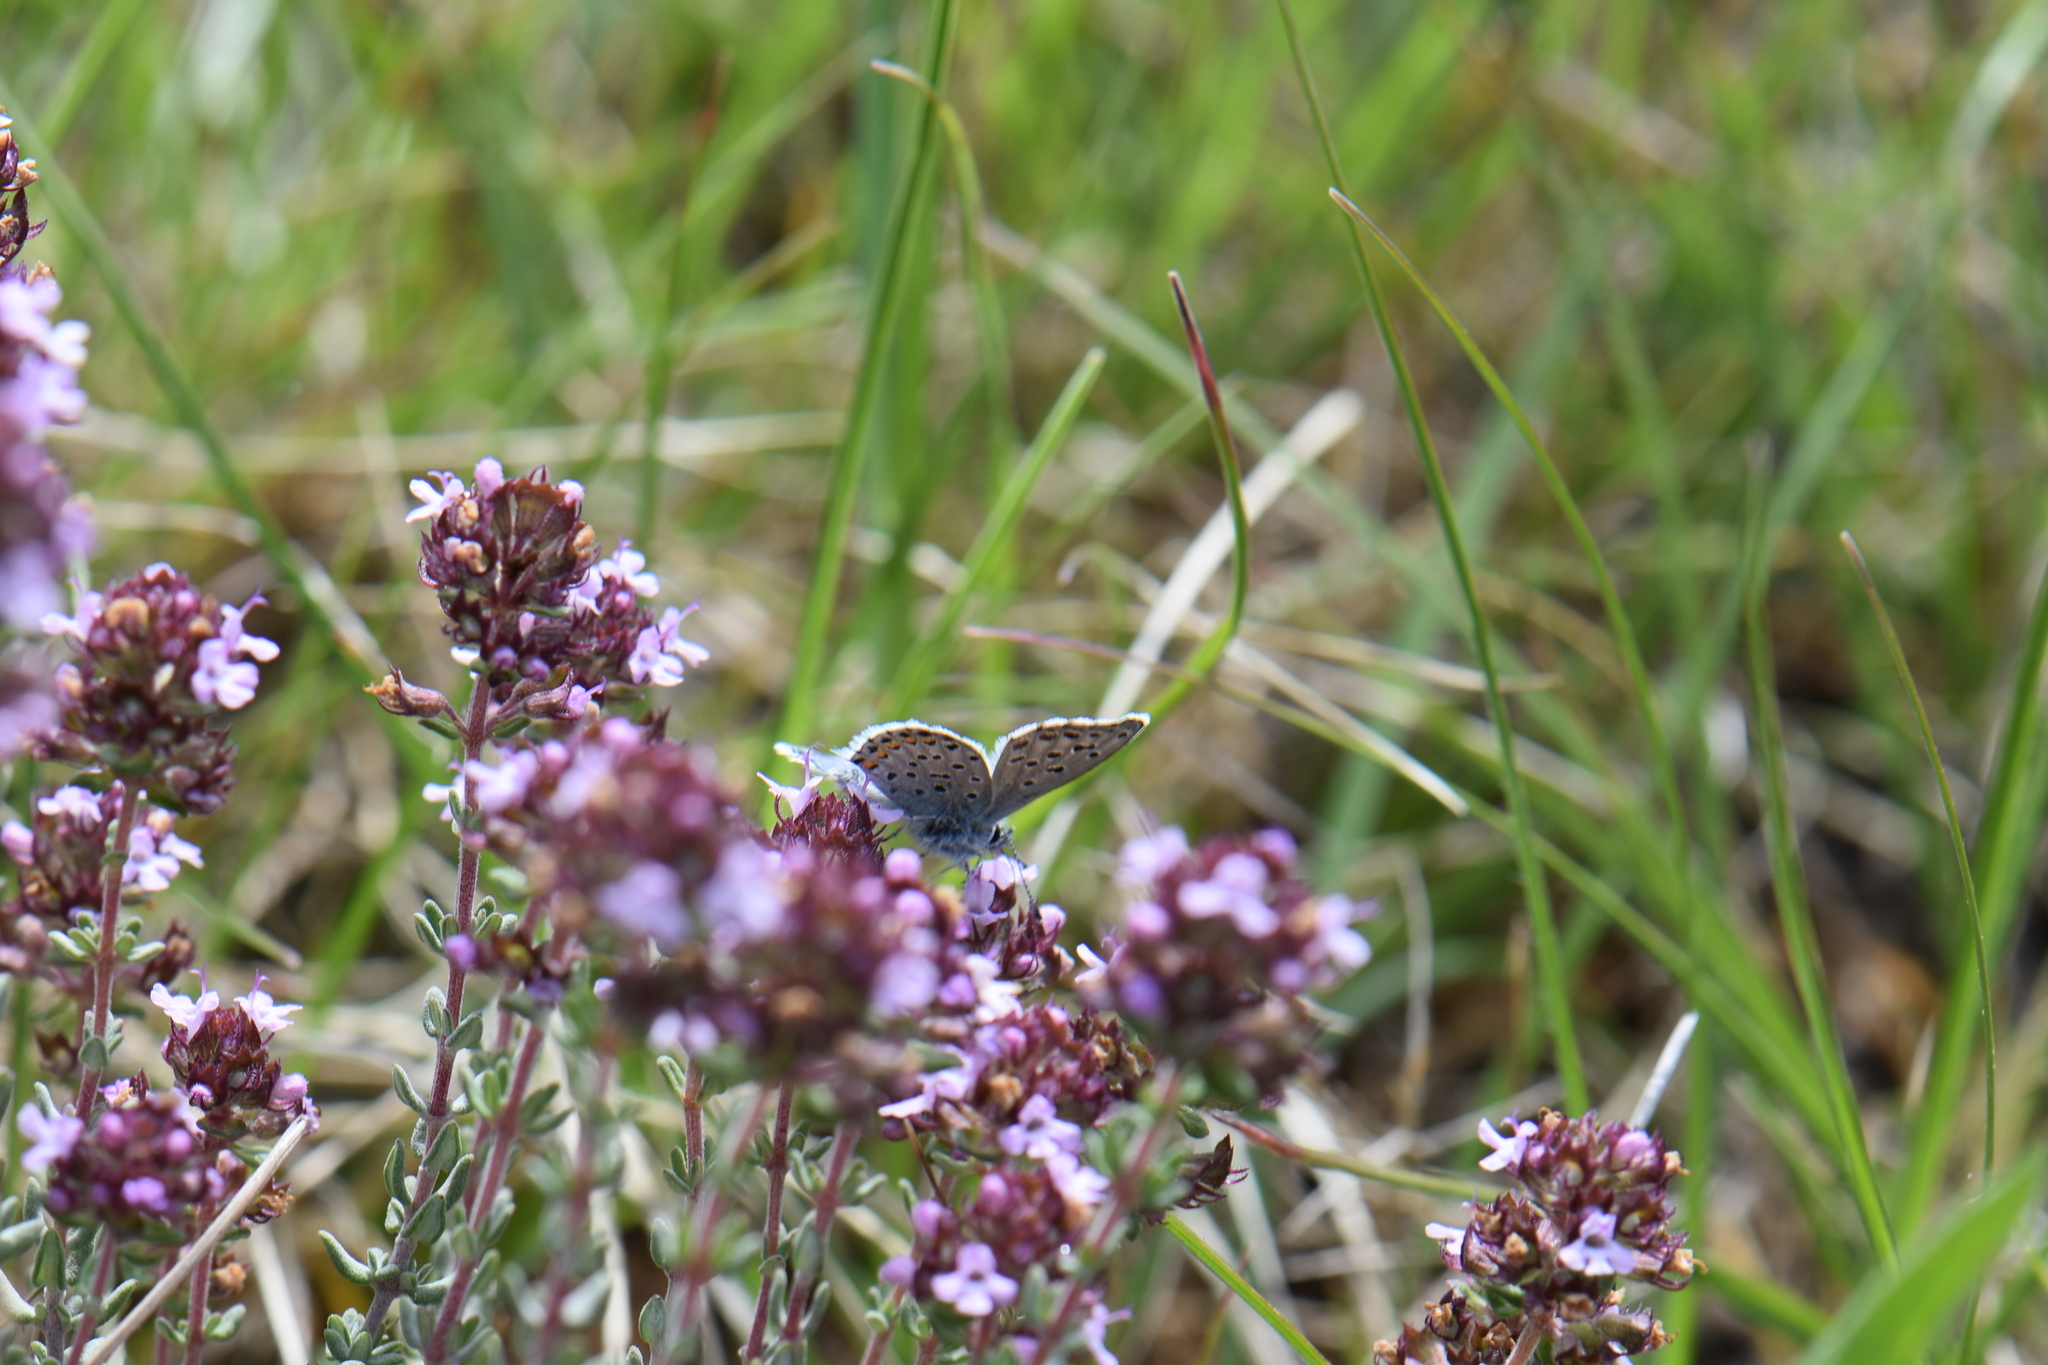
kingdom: Animalia
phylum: Arthropoda
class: Insecta
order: Lepidoptera
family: Lycaenidae
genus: Pseudophilotes
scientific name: Pseudophilotes baton
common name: Baton blue
